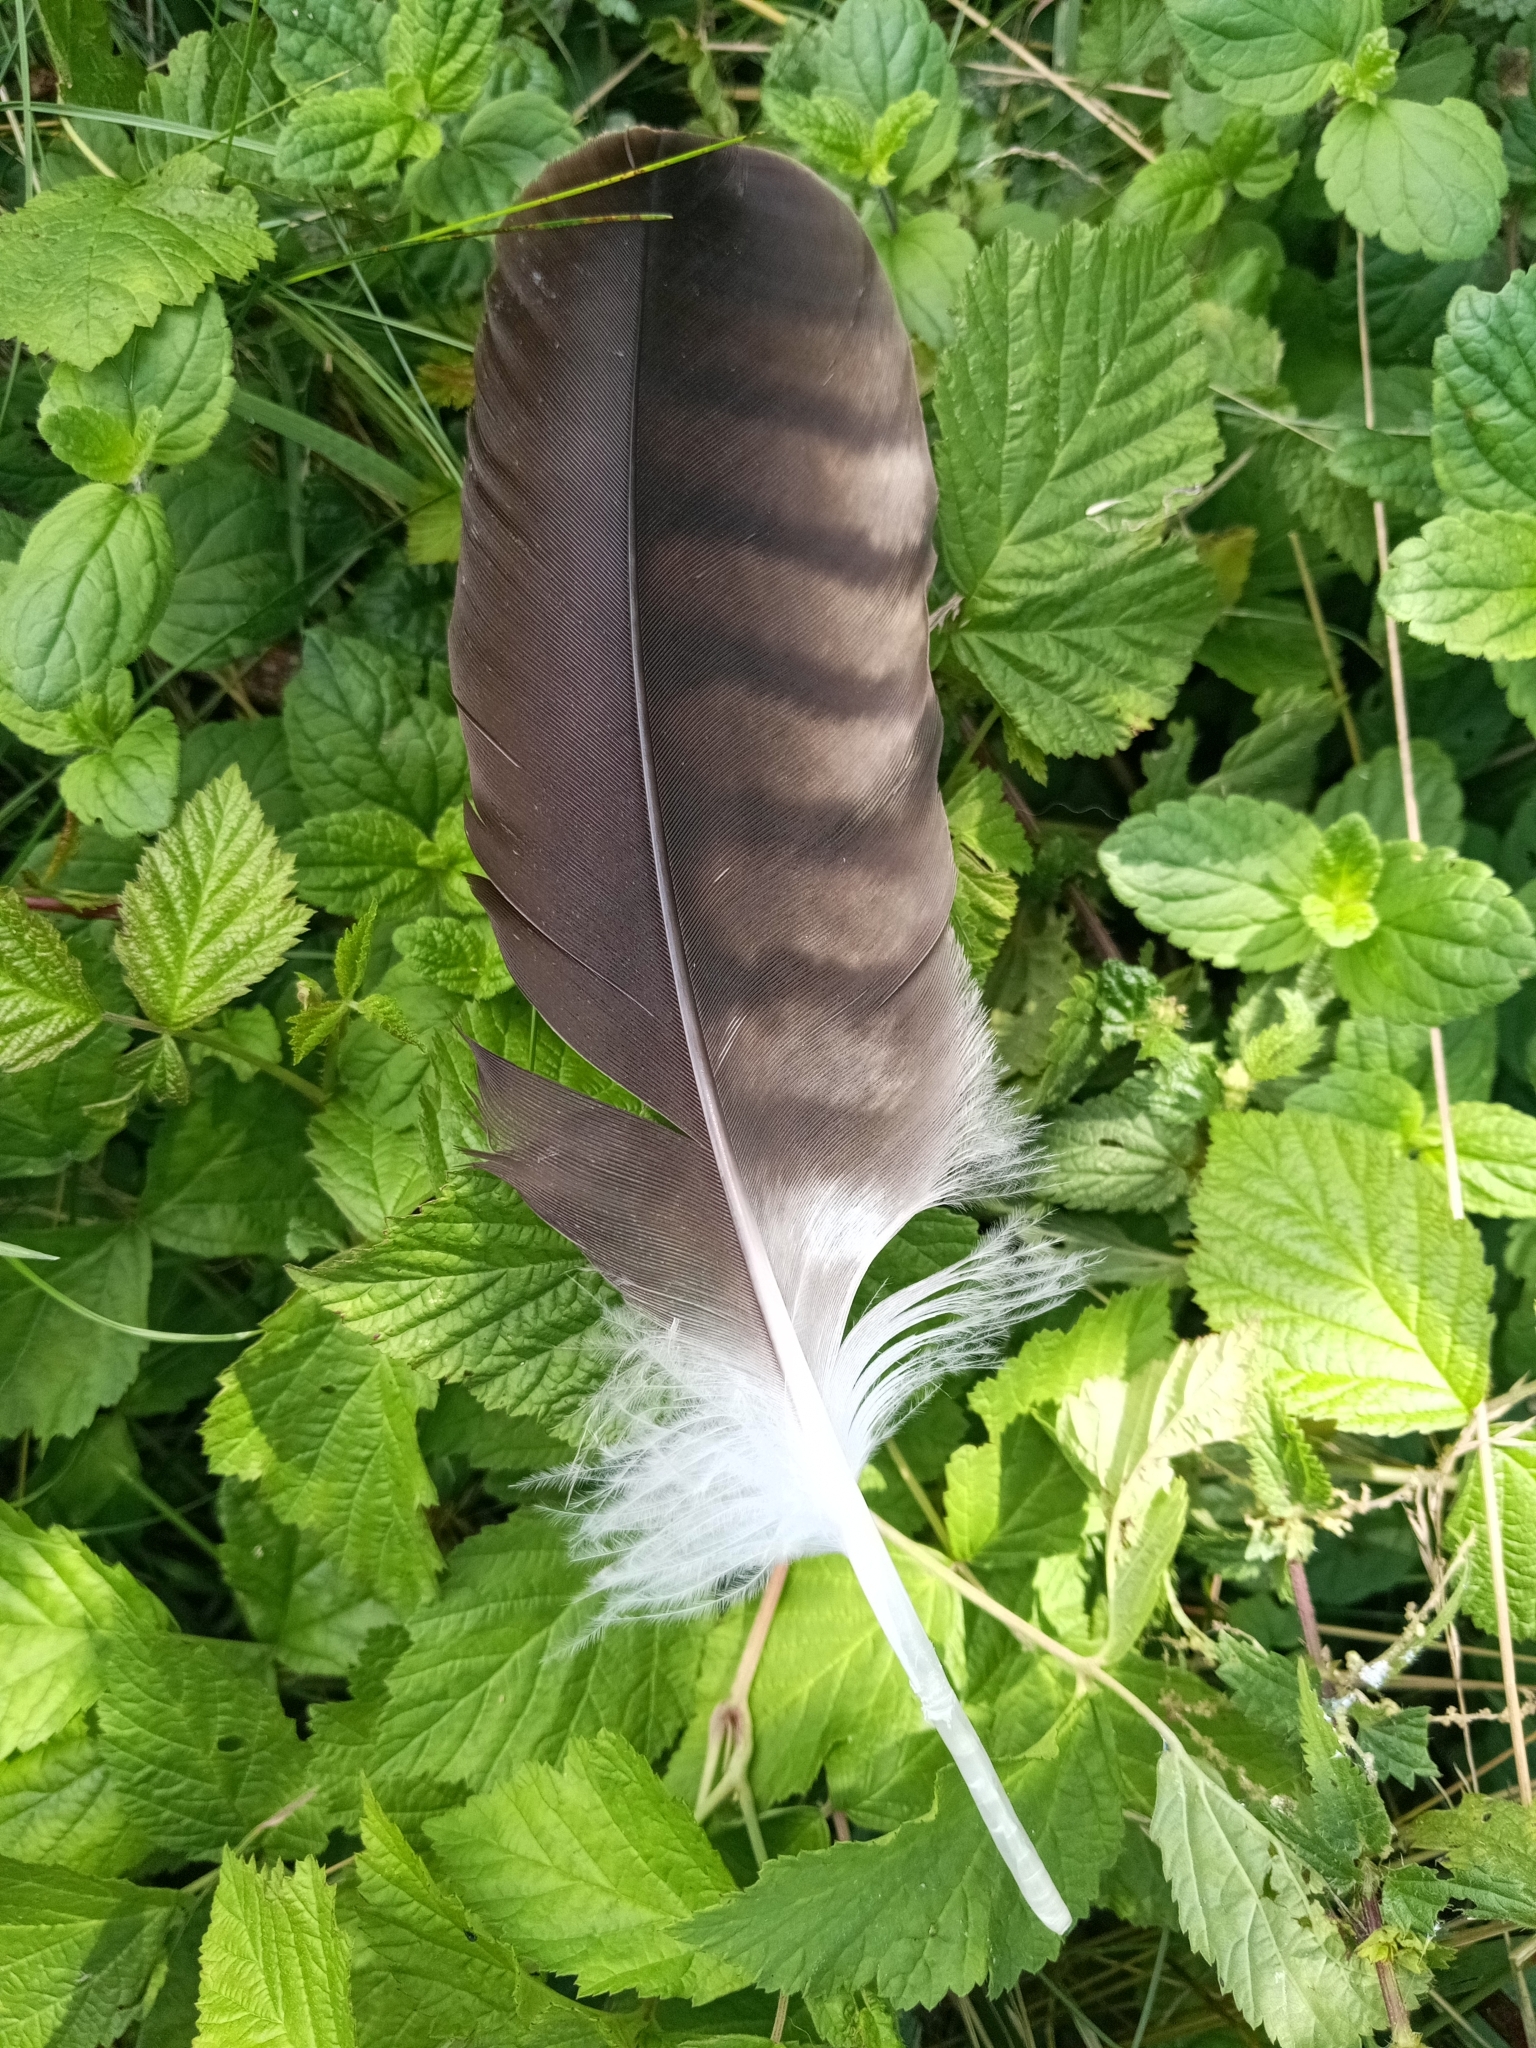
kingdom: Animalia
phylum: Chordata
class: Aves
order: Accipitriformes
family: Accipitridae
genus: Milvus
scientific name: Milvus milvus
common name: Red kite
